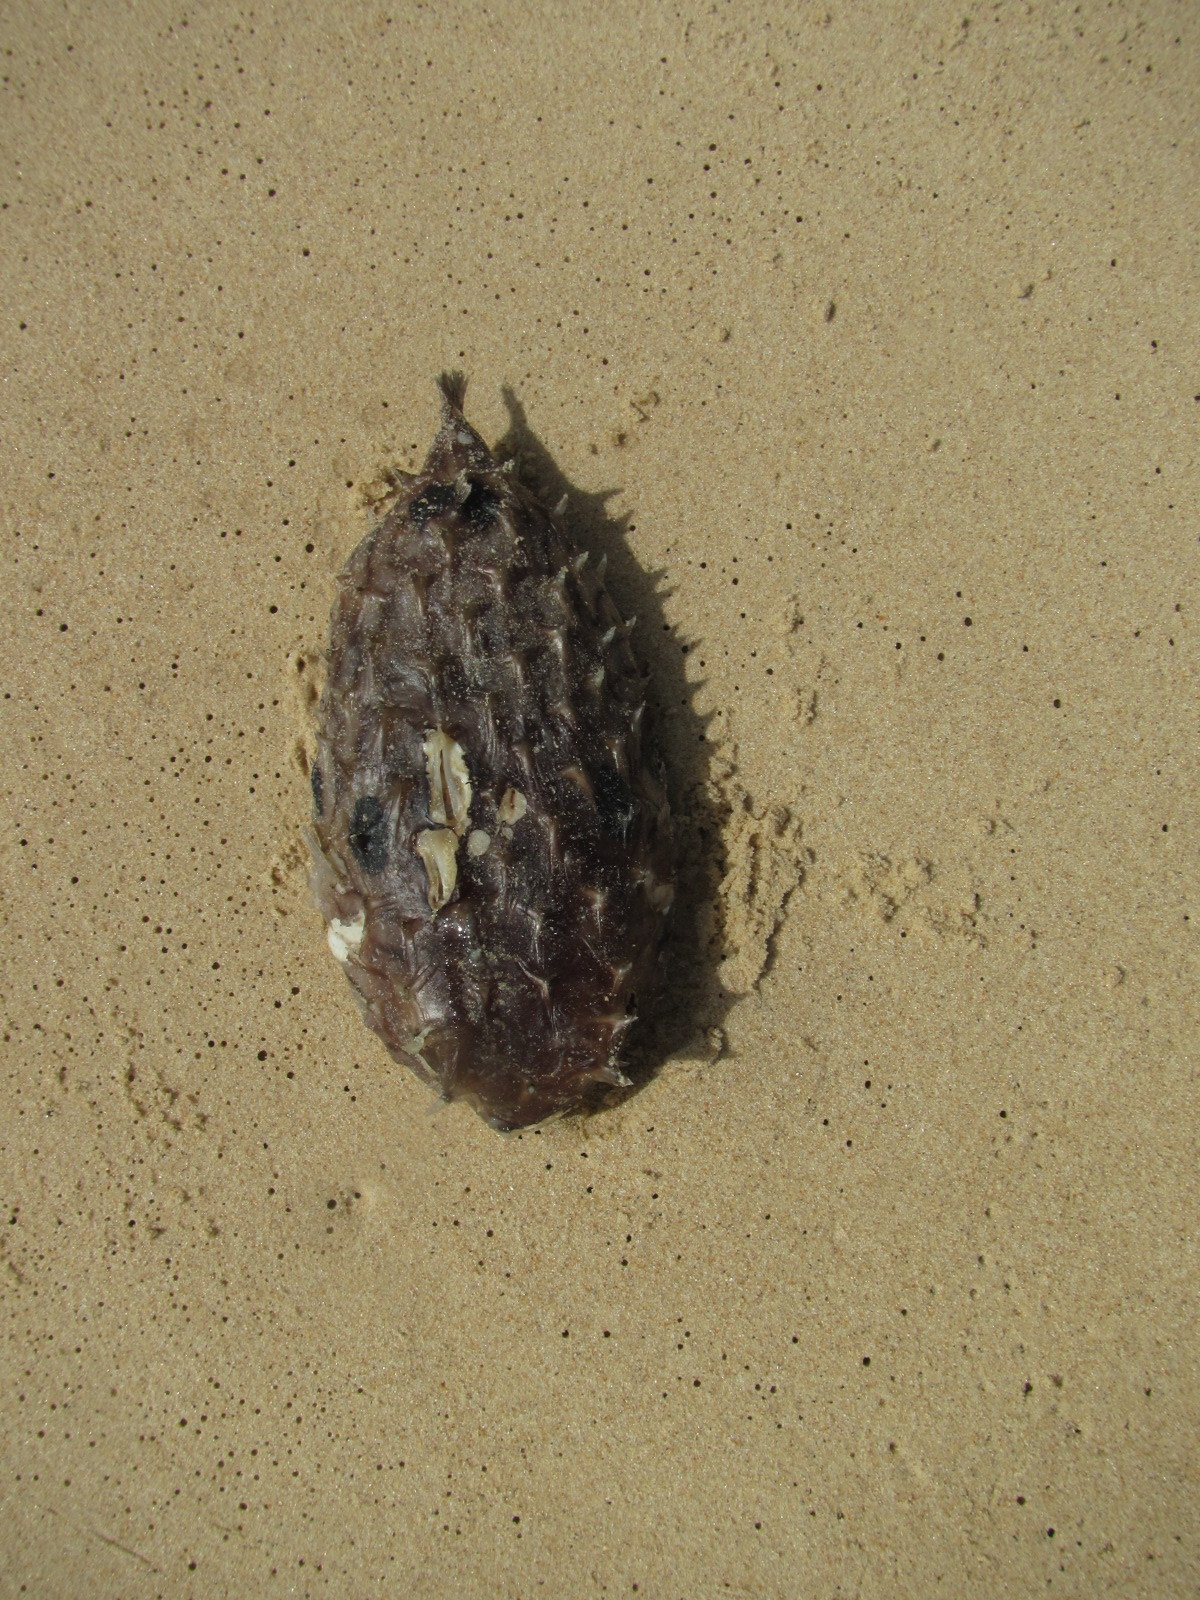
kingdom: Animalia
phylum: Chordata
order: Tetraodontiformes
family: Diodontidae
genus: Chilomycterus
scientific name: Chilomycterus spinosus
